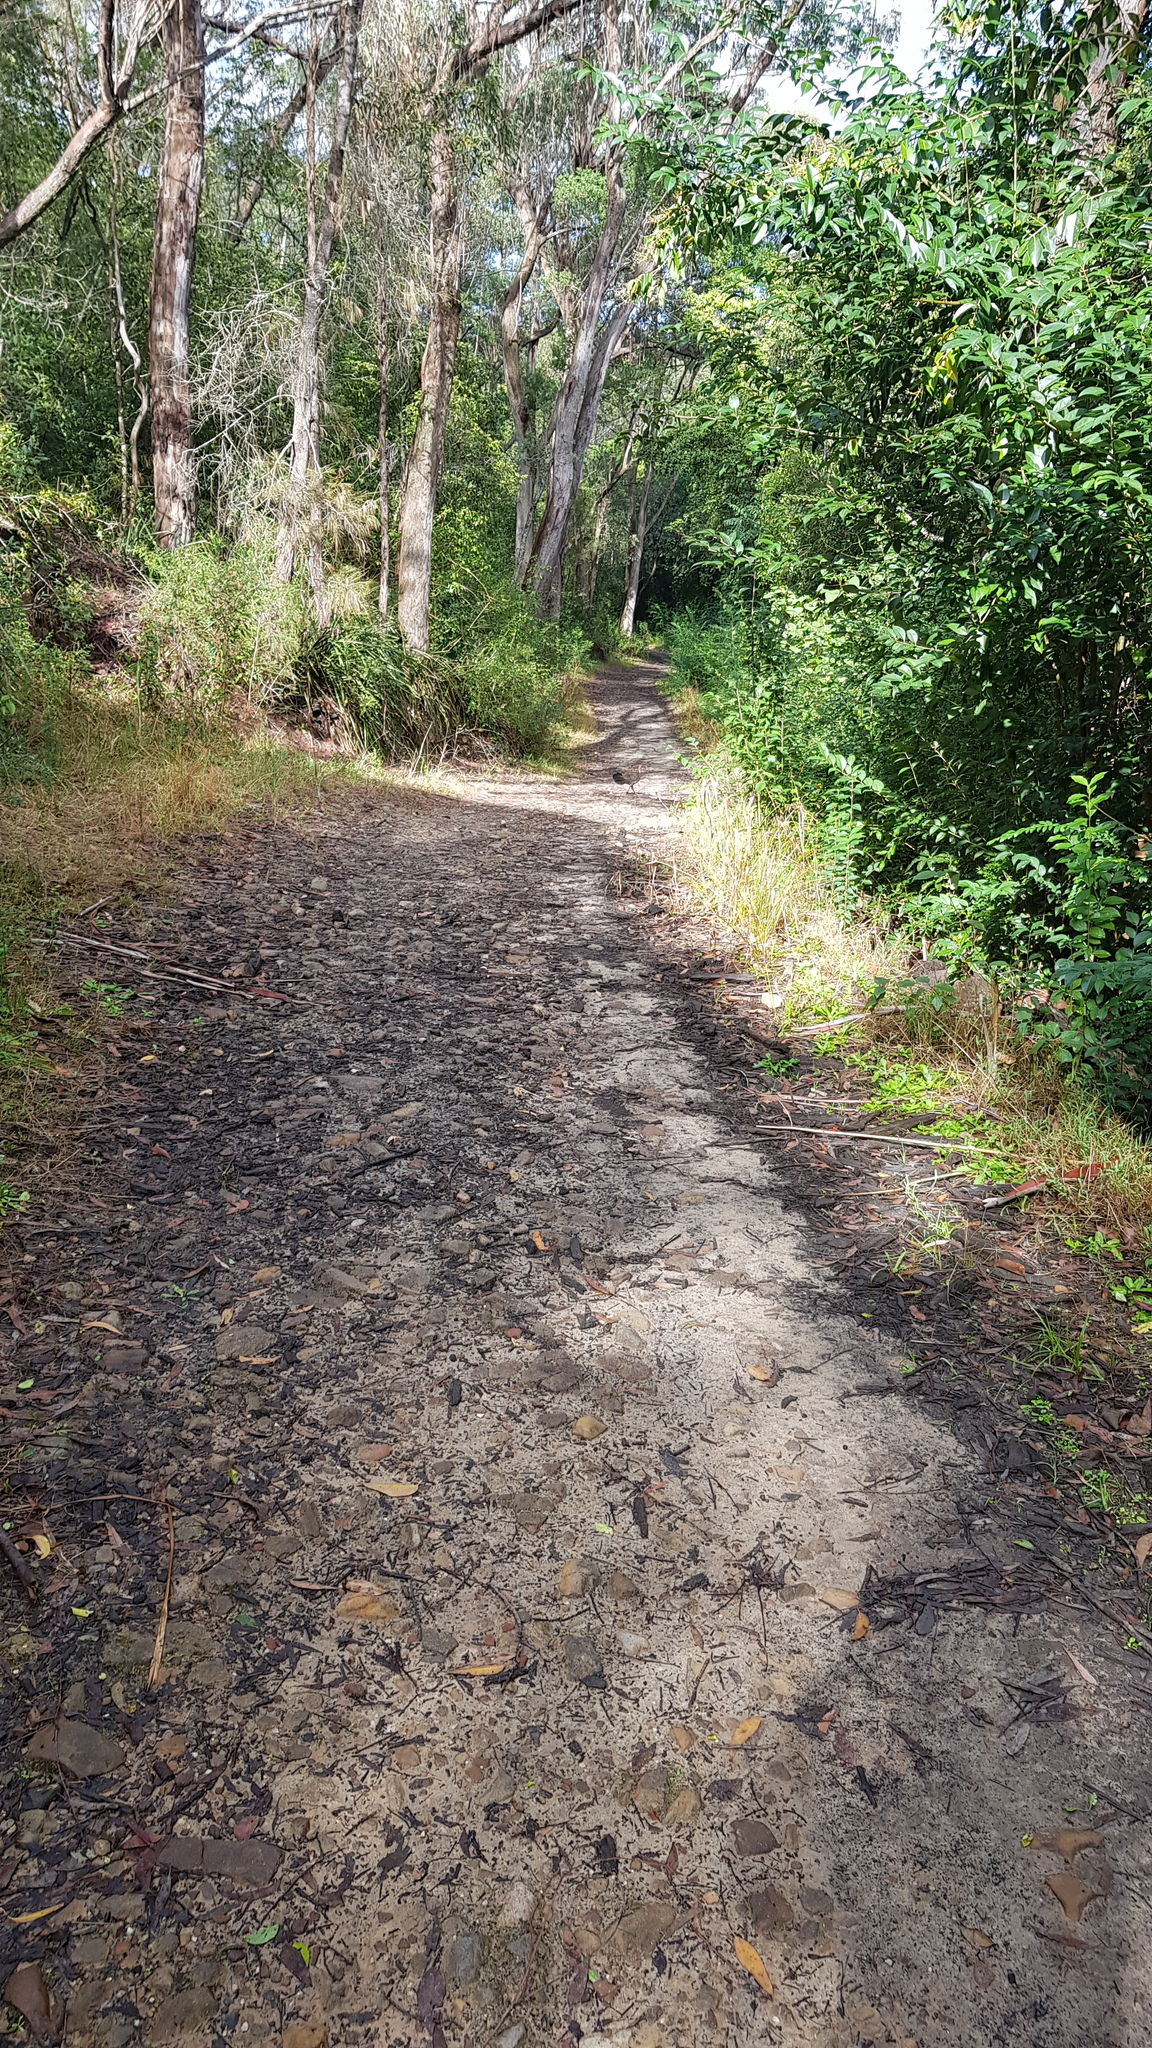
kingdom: Animalia
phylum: Chordata
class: Aves
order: Galliformes
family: Megapodiidae
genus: Alectura
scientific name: Alectura lathami
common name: Australian brushturkey
